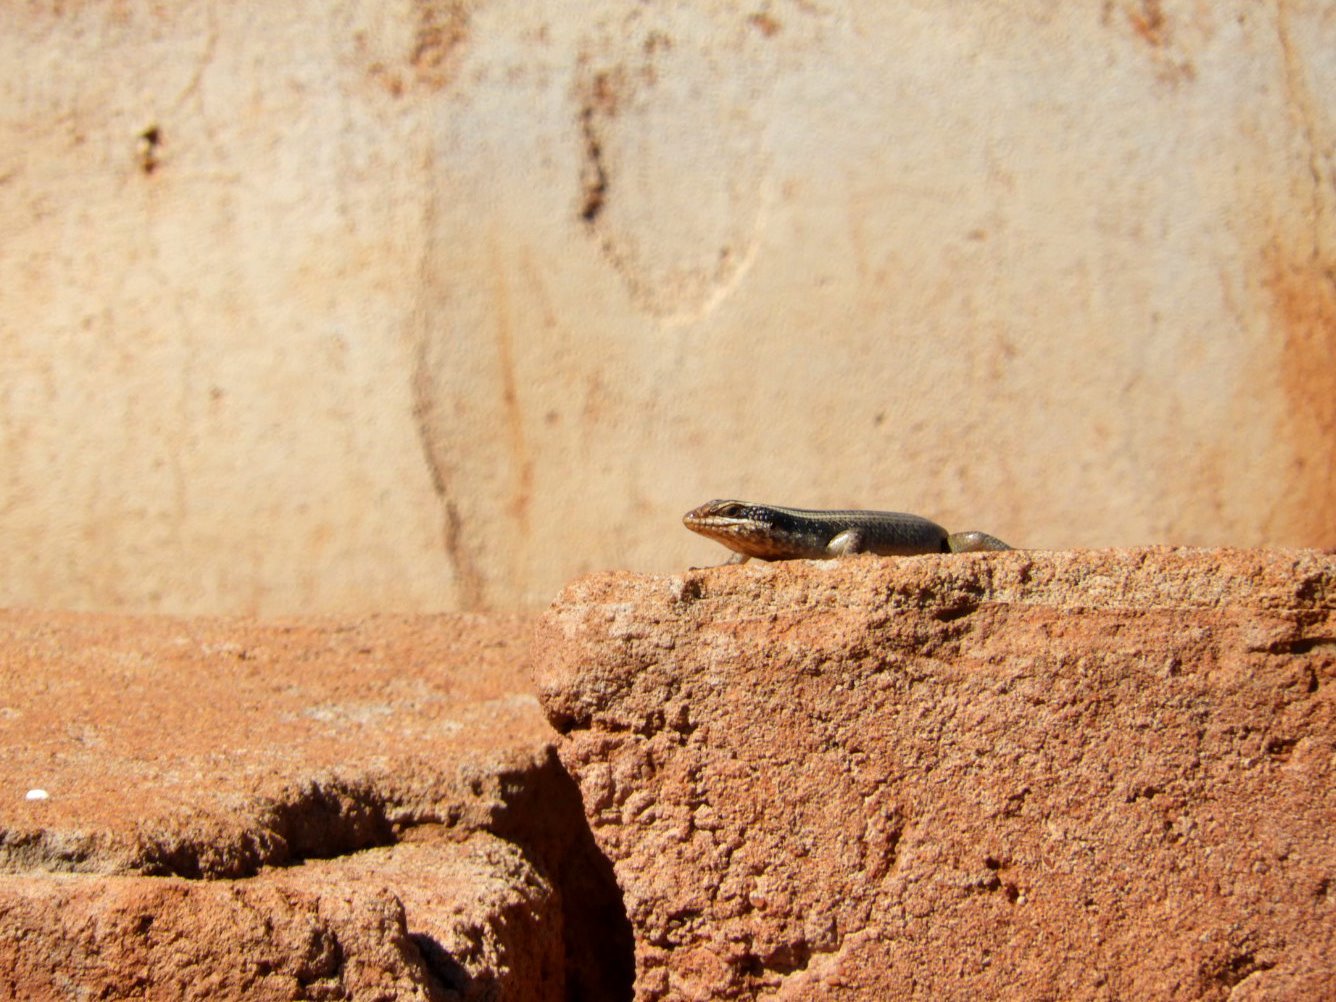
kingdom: Animalia
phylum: Chordata
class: Squamata
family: Scincidae
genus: Trachylepis
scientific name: Trachylepis striata
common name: African striped mabuya
